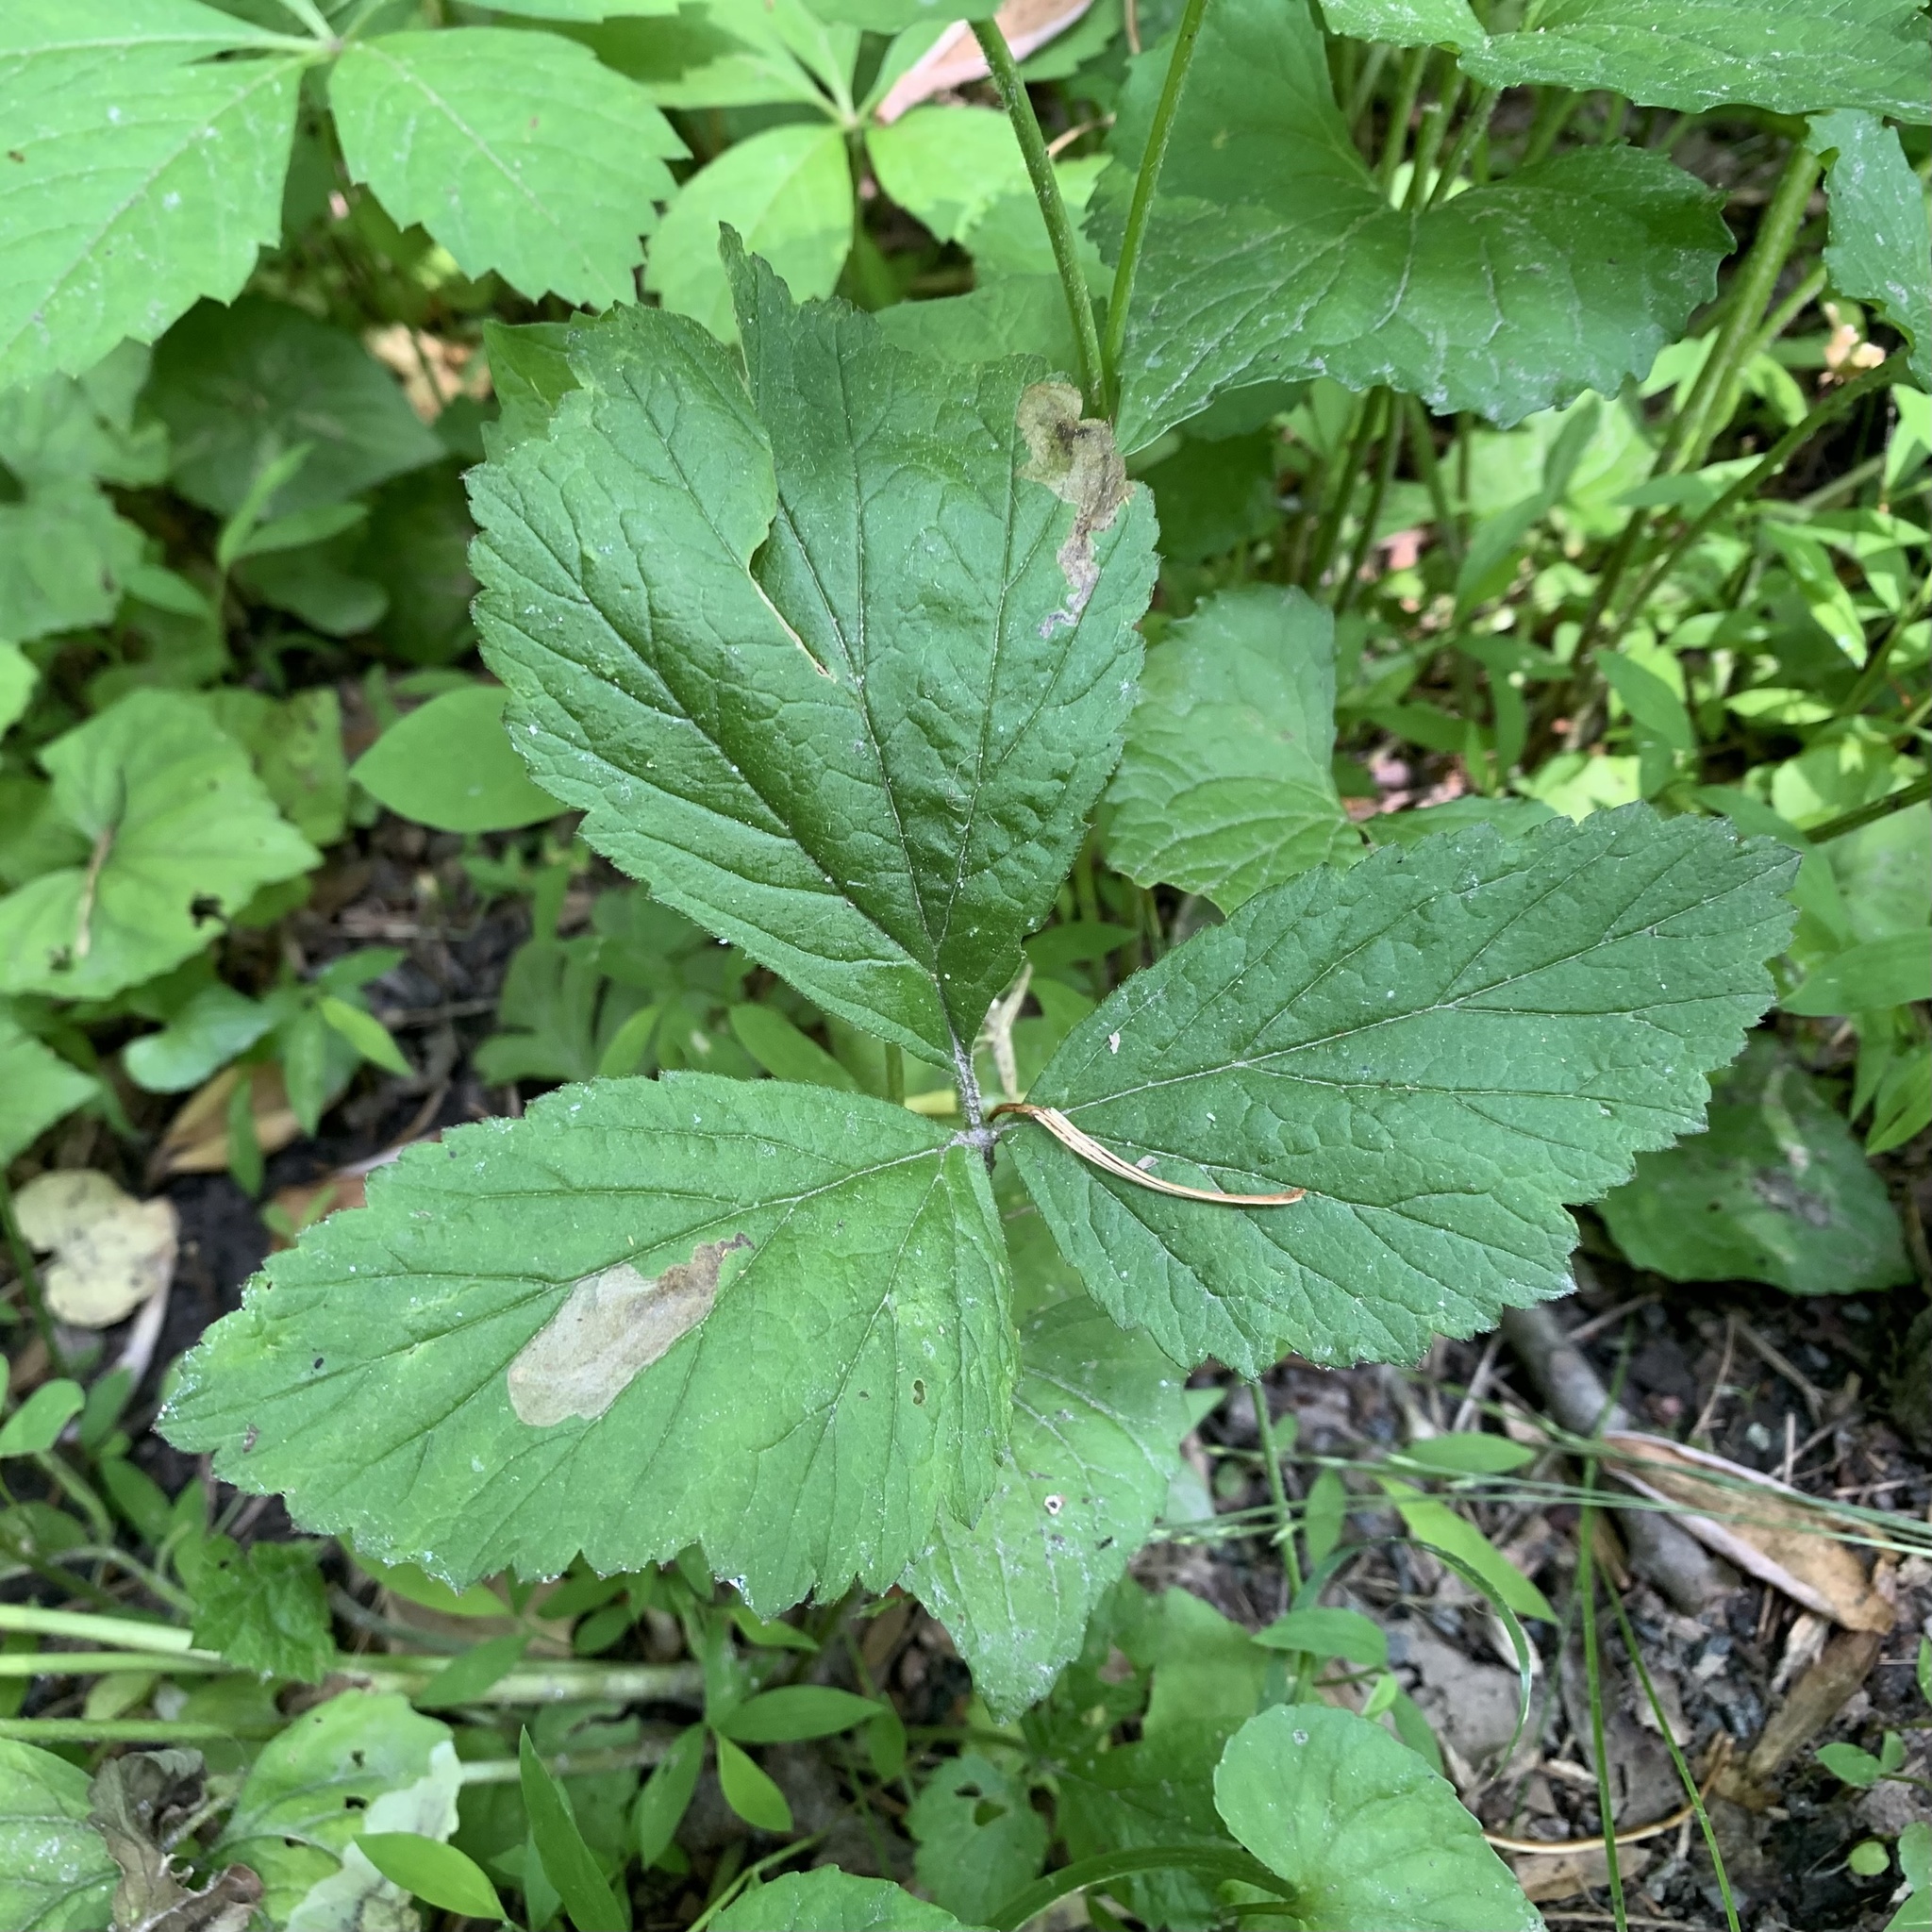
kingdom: Animalia
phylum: Arthropoda
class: Insecta
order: Hymenoptera
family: Tenthredinidae
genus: Metallus
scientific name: Metallus lanceolatus
